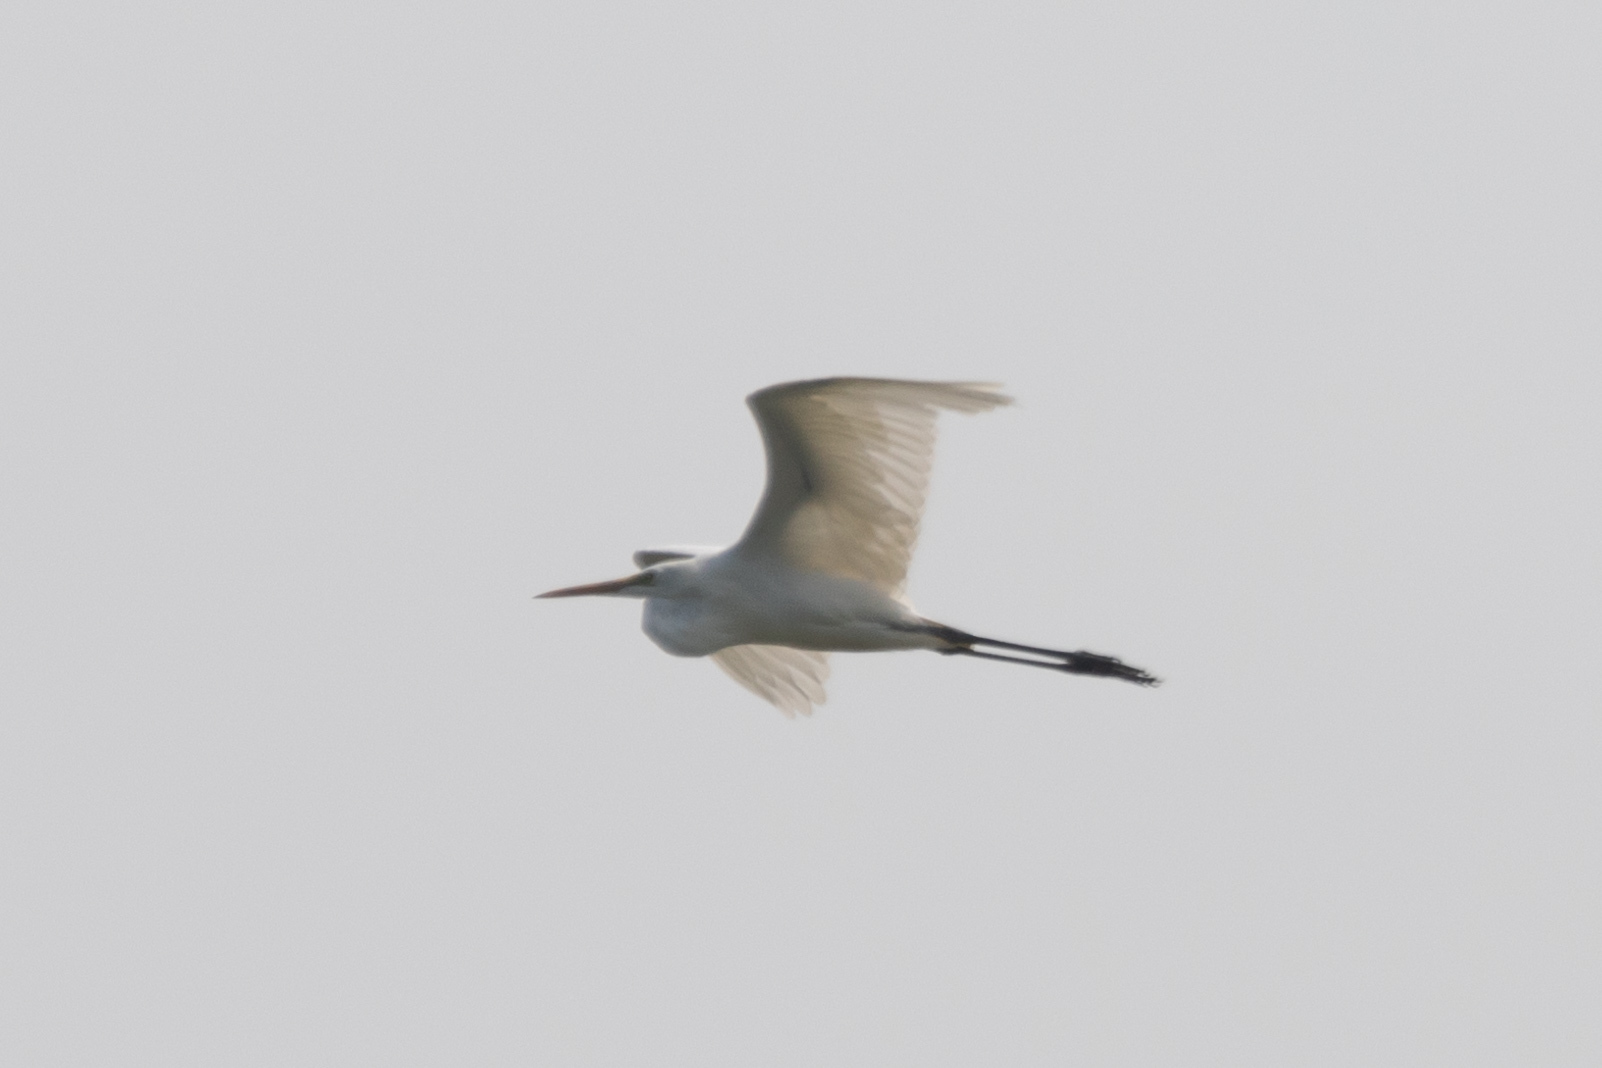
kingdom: Animalia
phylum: Chordata
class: Aves
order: Pelecaniformes
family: Ardeidae
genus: Ardea
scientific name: Ardea alba
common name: Great egret
